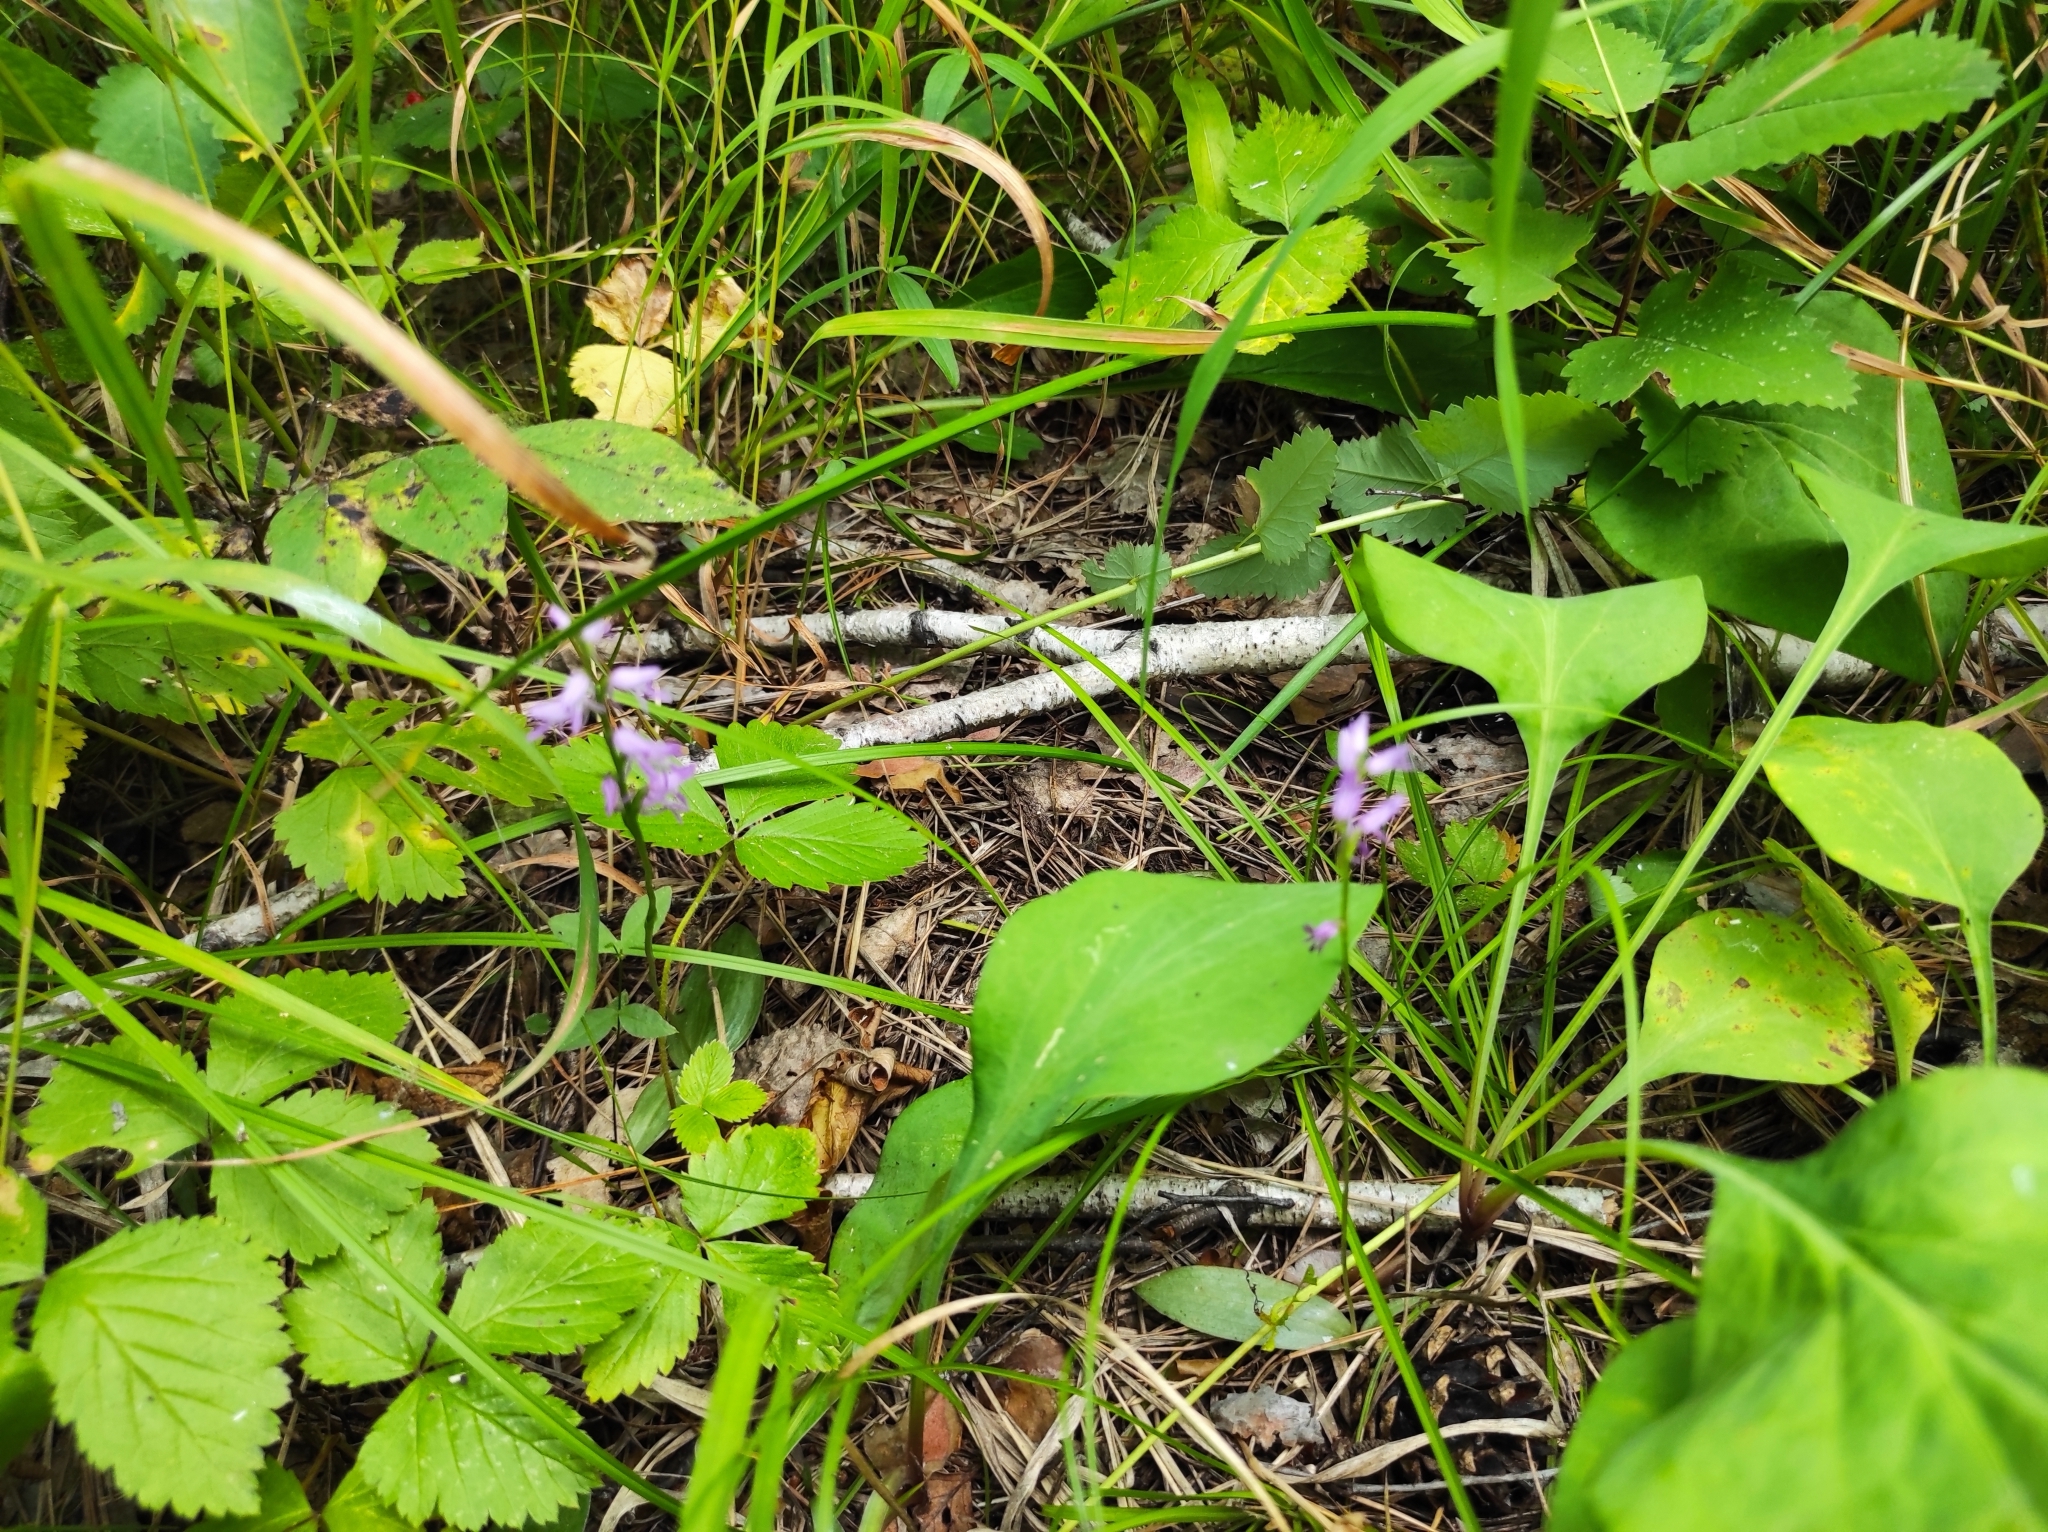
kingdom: Plantae
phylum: Tracheophyta
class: Liliopsida
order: Asparagales
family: Orchidaceae
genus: Hemipilia
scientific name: Hemipilia cucullata
